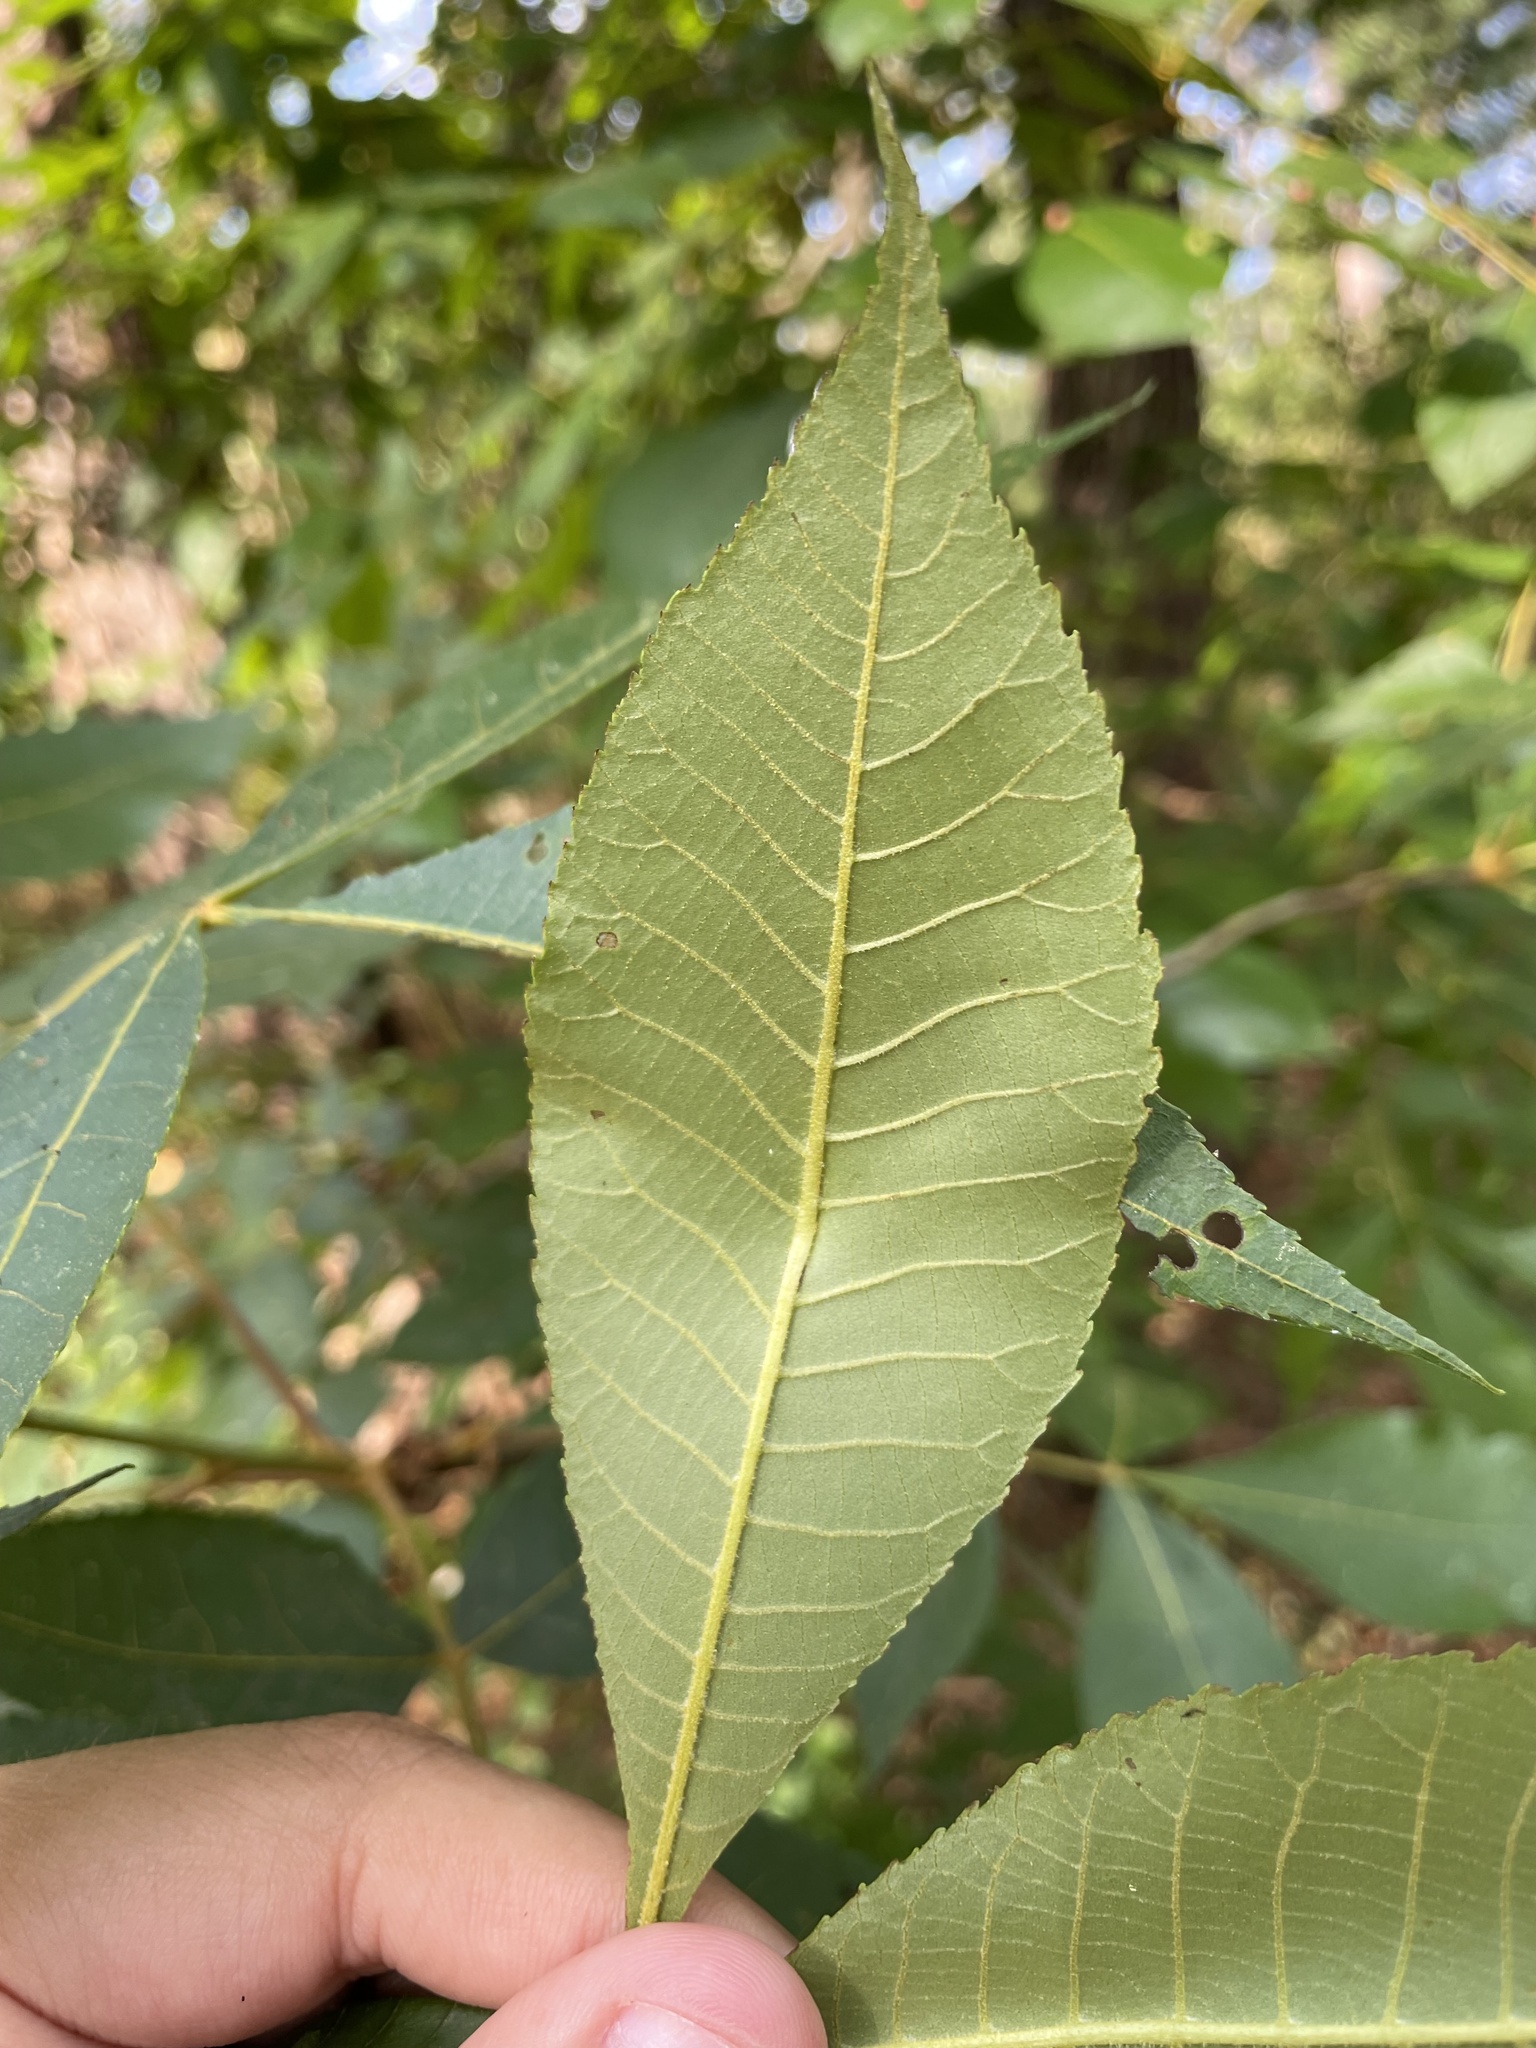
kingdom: Plantae
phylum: Tracheophyta
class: Magnoliopsida
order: Fagales
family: Juglandaceae
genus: Carya
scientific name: Carya texana
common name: Black hickory
